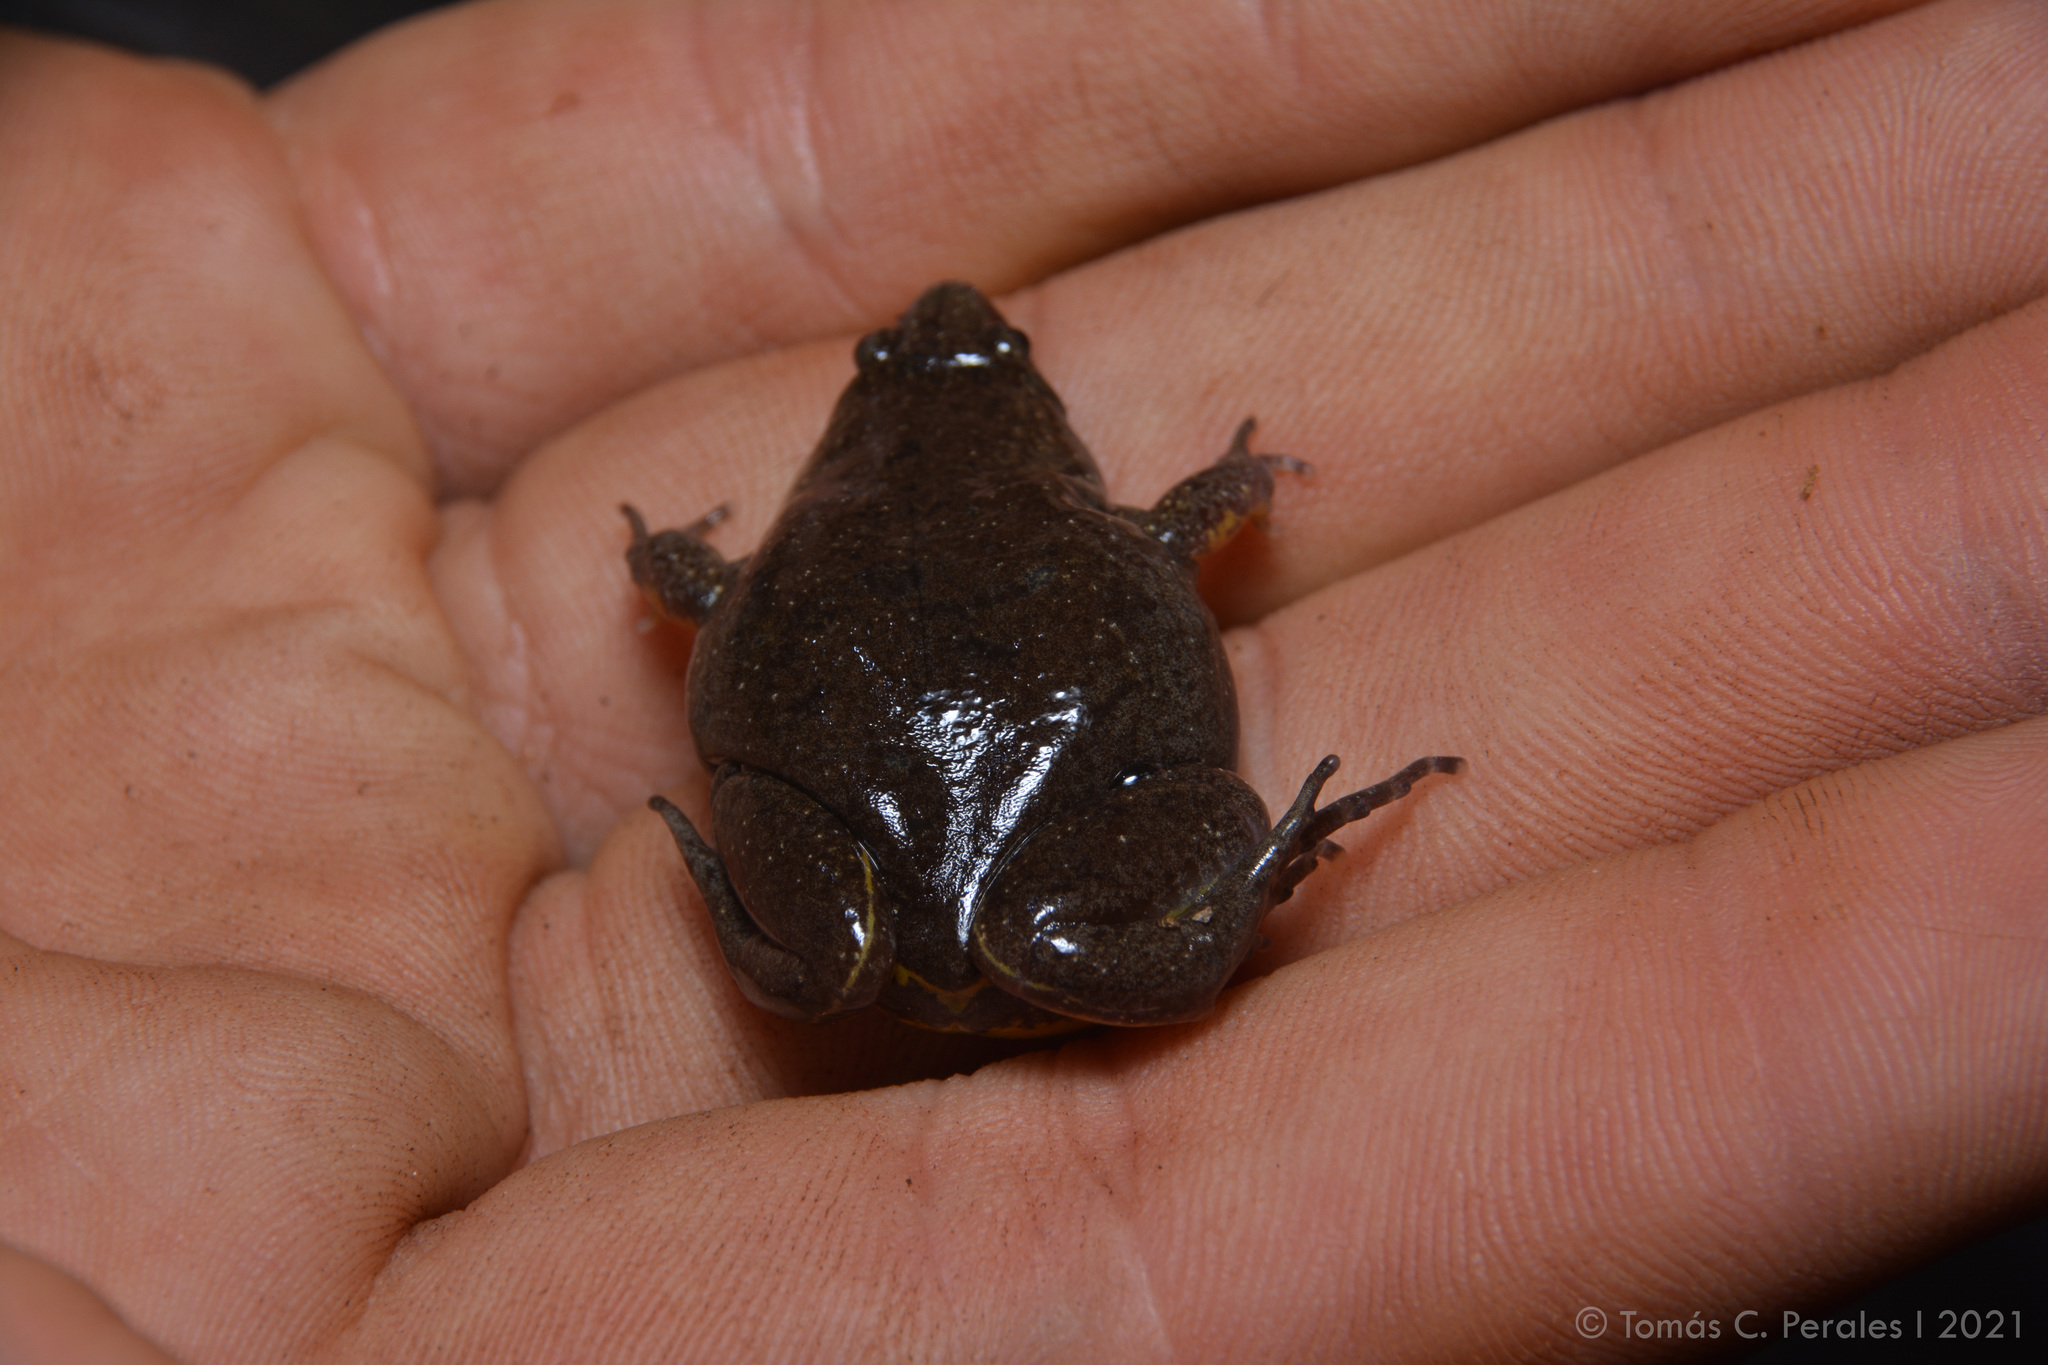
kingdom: Animalia
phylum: Chordata
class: Amphibia
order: Anura
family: Microhylidae
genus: Elachistocleis
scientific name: Elachistocleis bicolor
